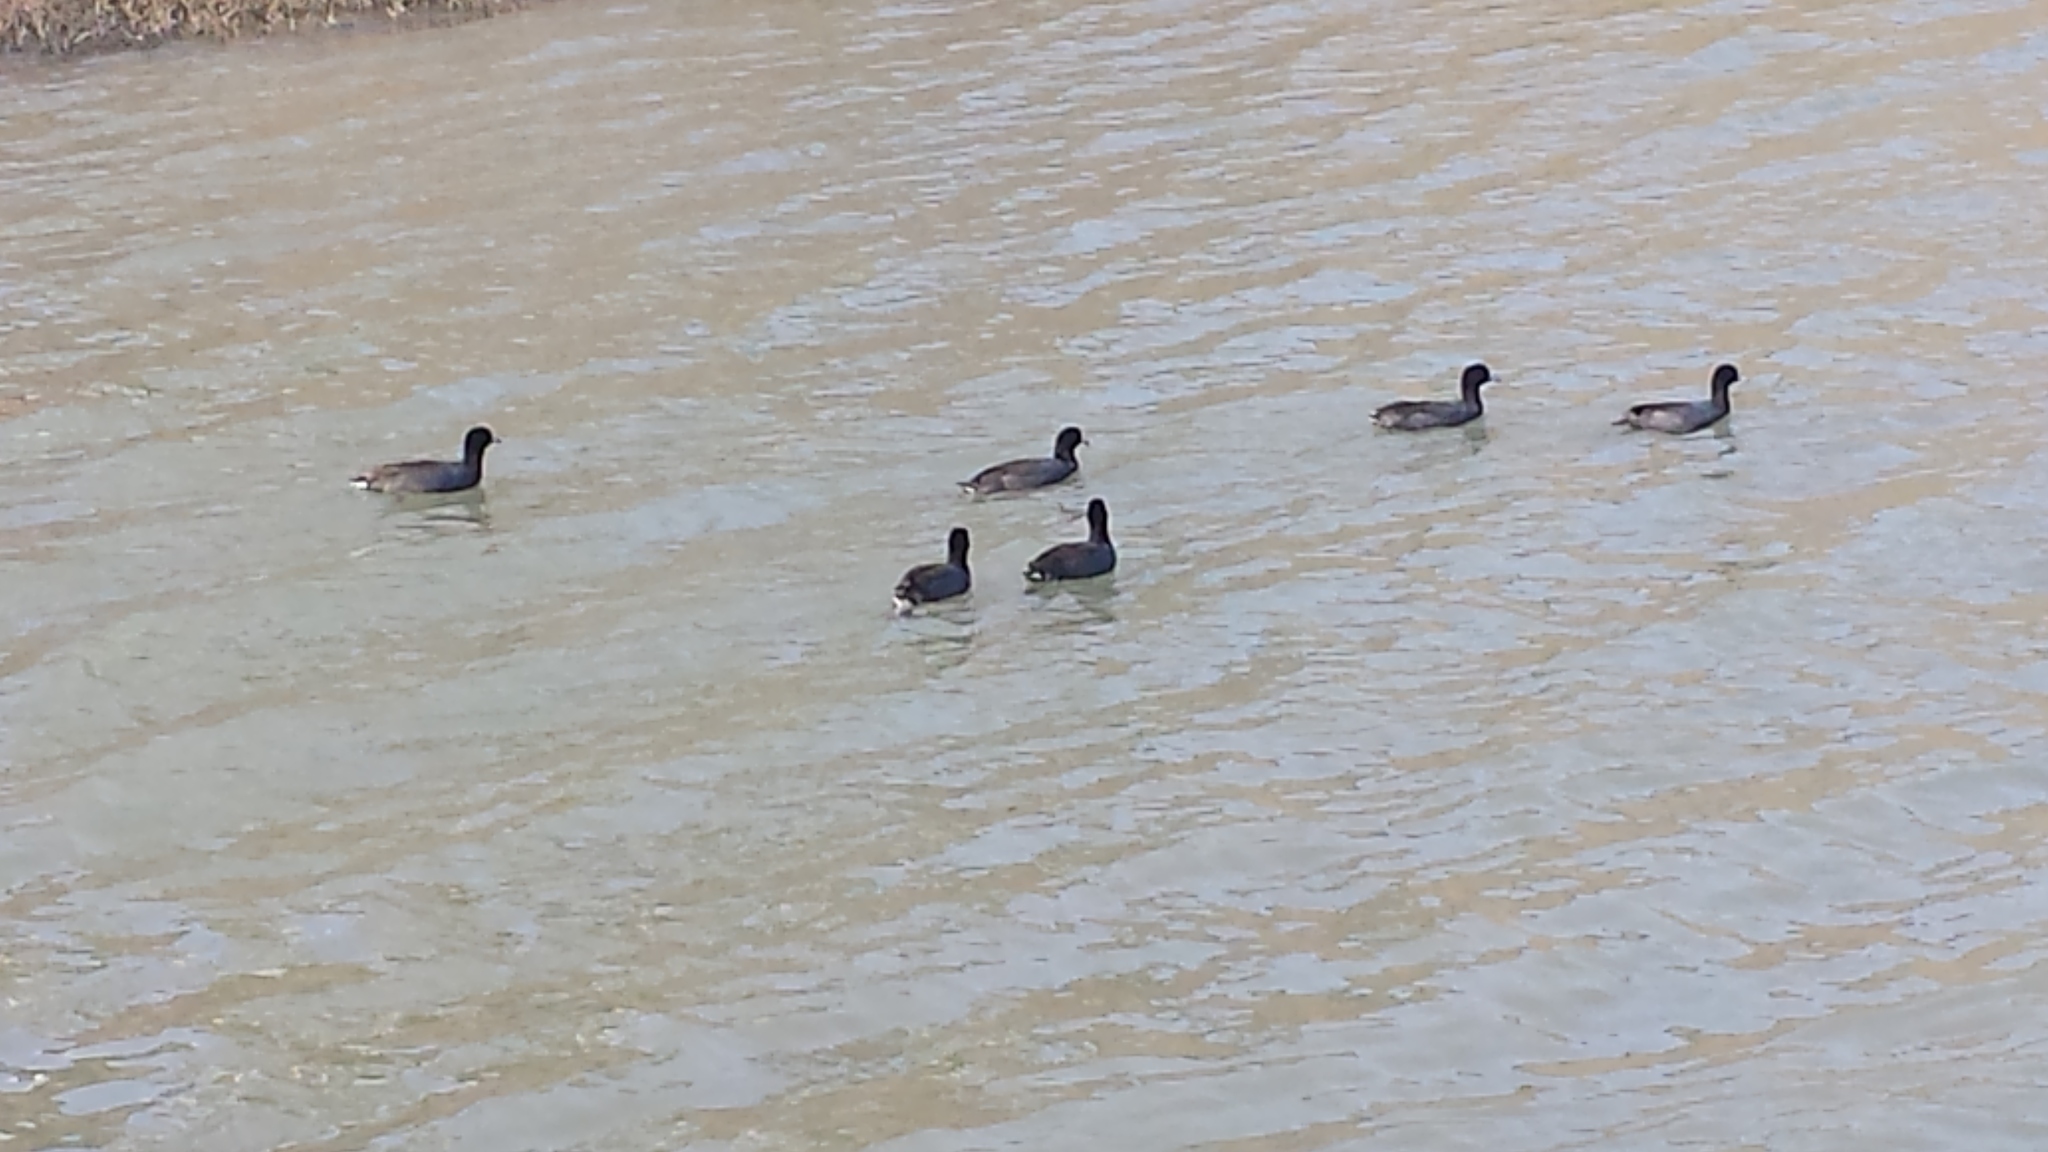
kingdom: Animalia
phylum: Chordata
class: Aves
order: Gruiformes
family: Rallidae
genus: Fulica
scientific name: Fulica americana
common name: American coot
